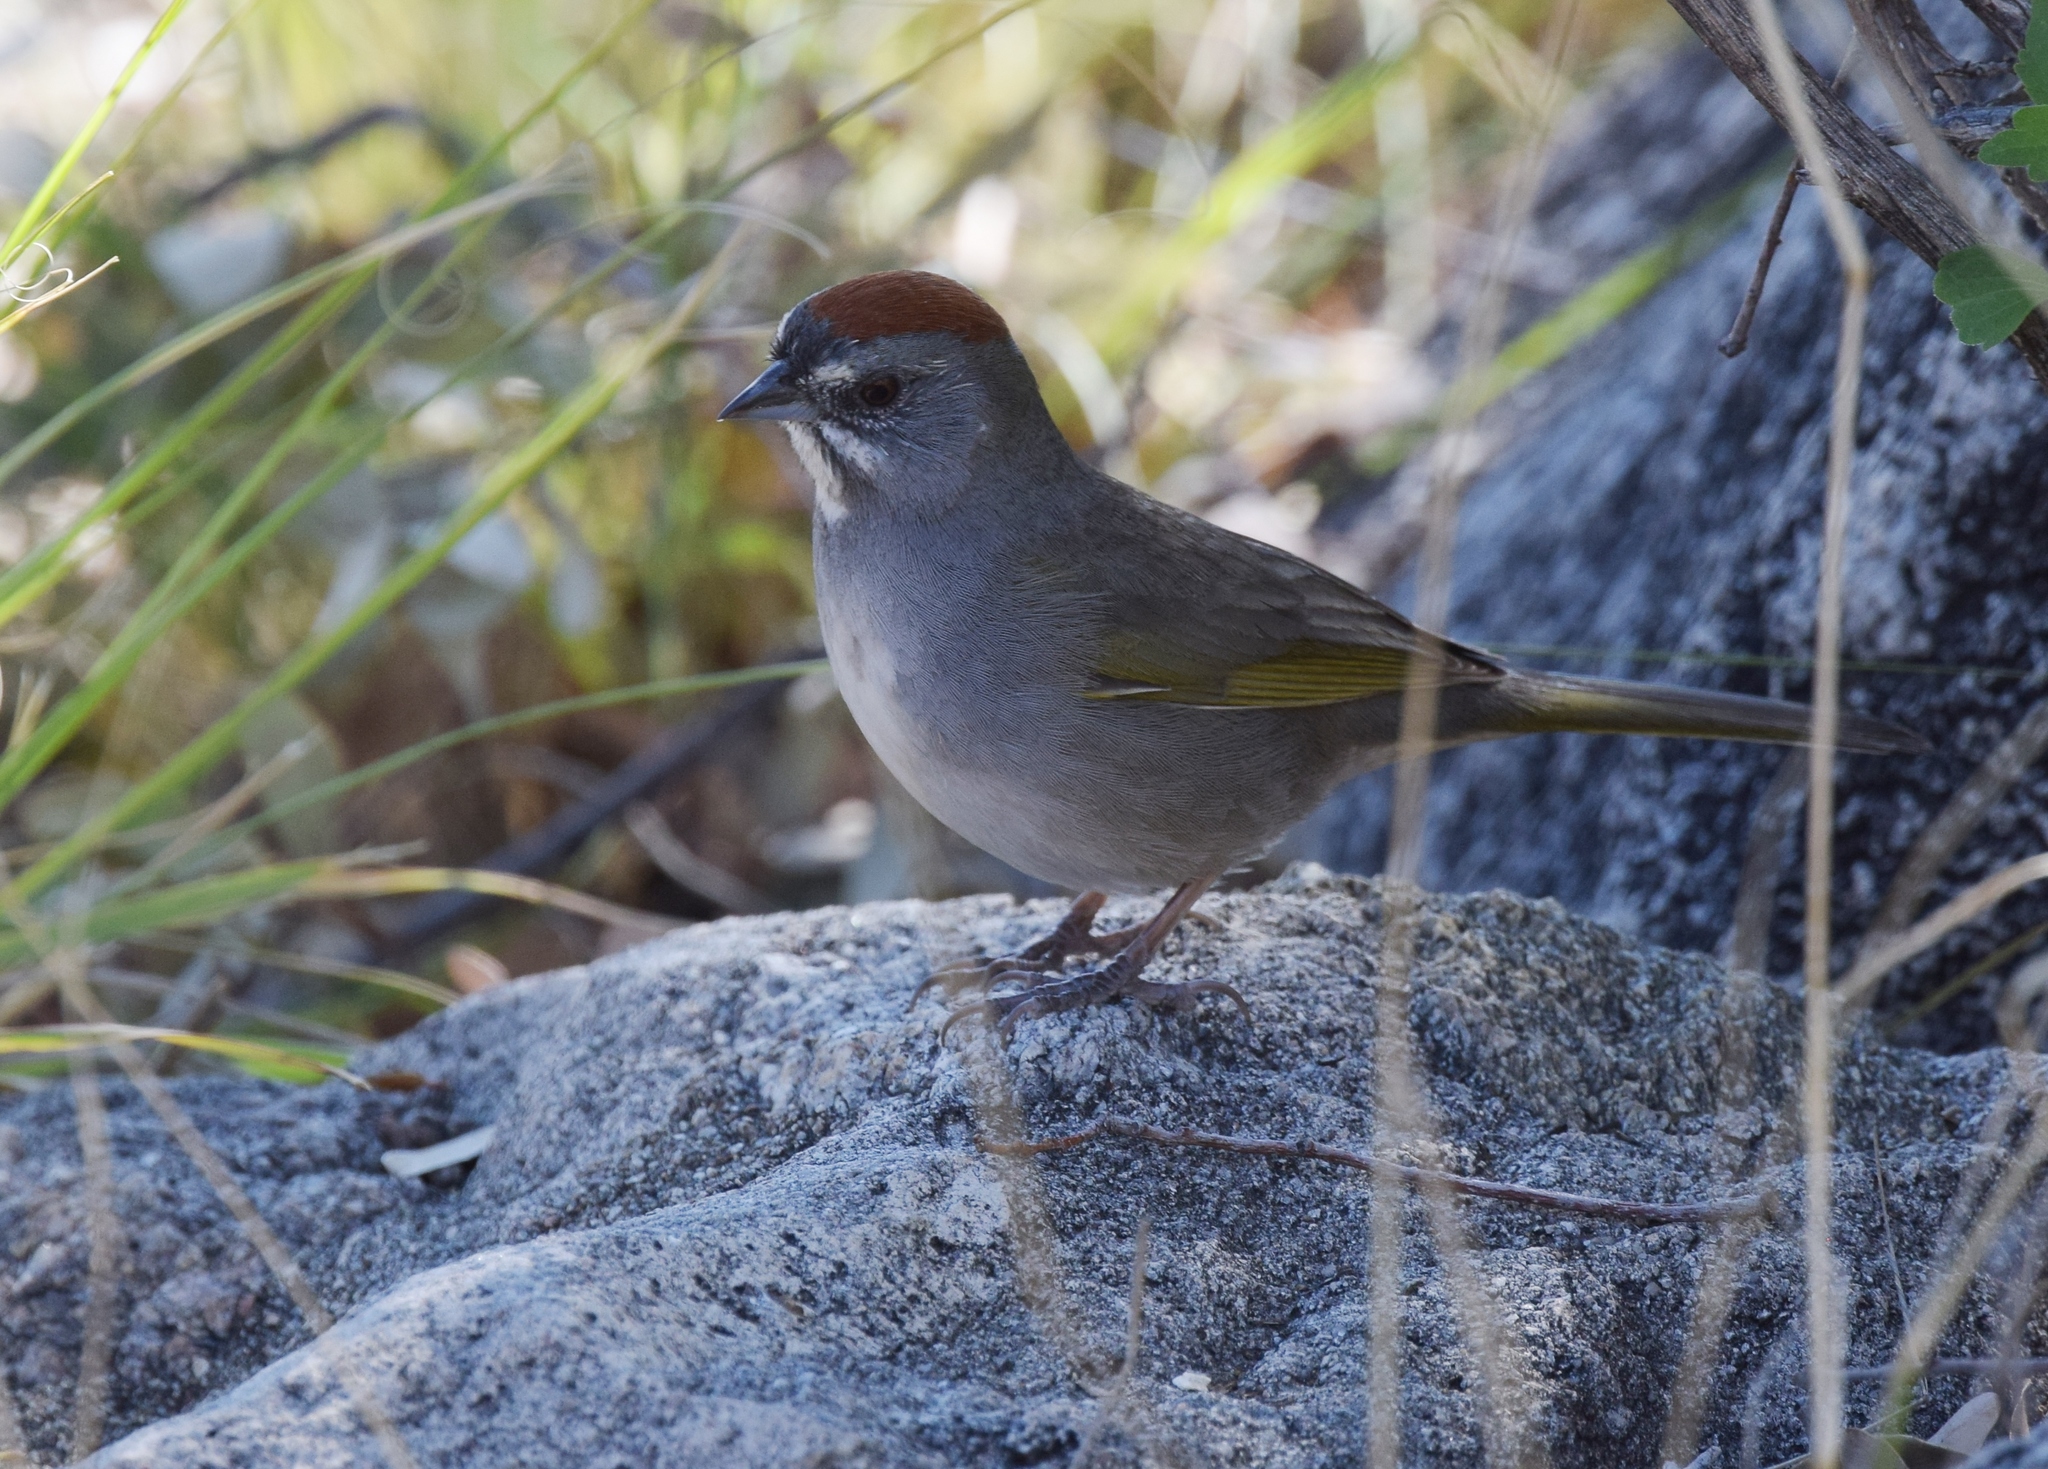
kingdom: Animalia
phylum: Chordata
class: Aves
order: Passeriformes
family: Passerellidae
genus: Pipilo
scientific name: Pipilo chlorurus
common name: Green-tailed towhee
